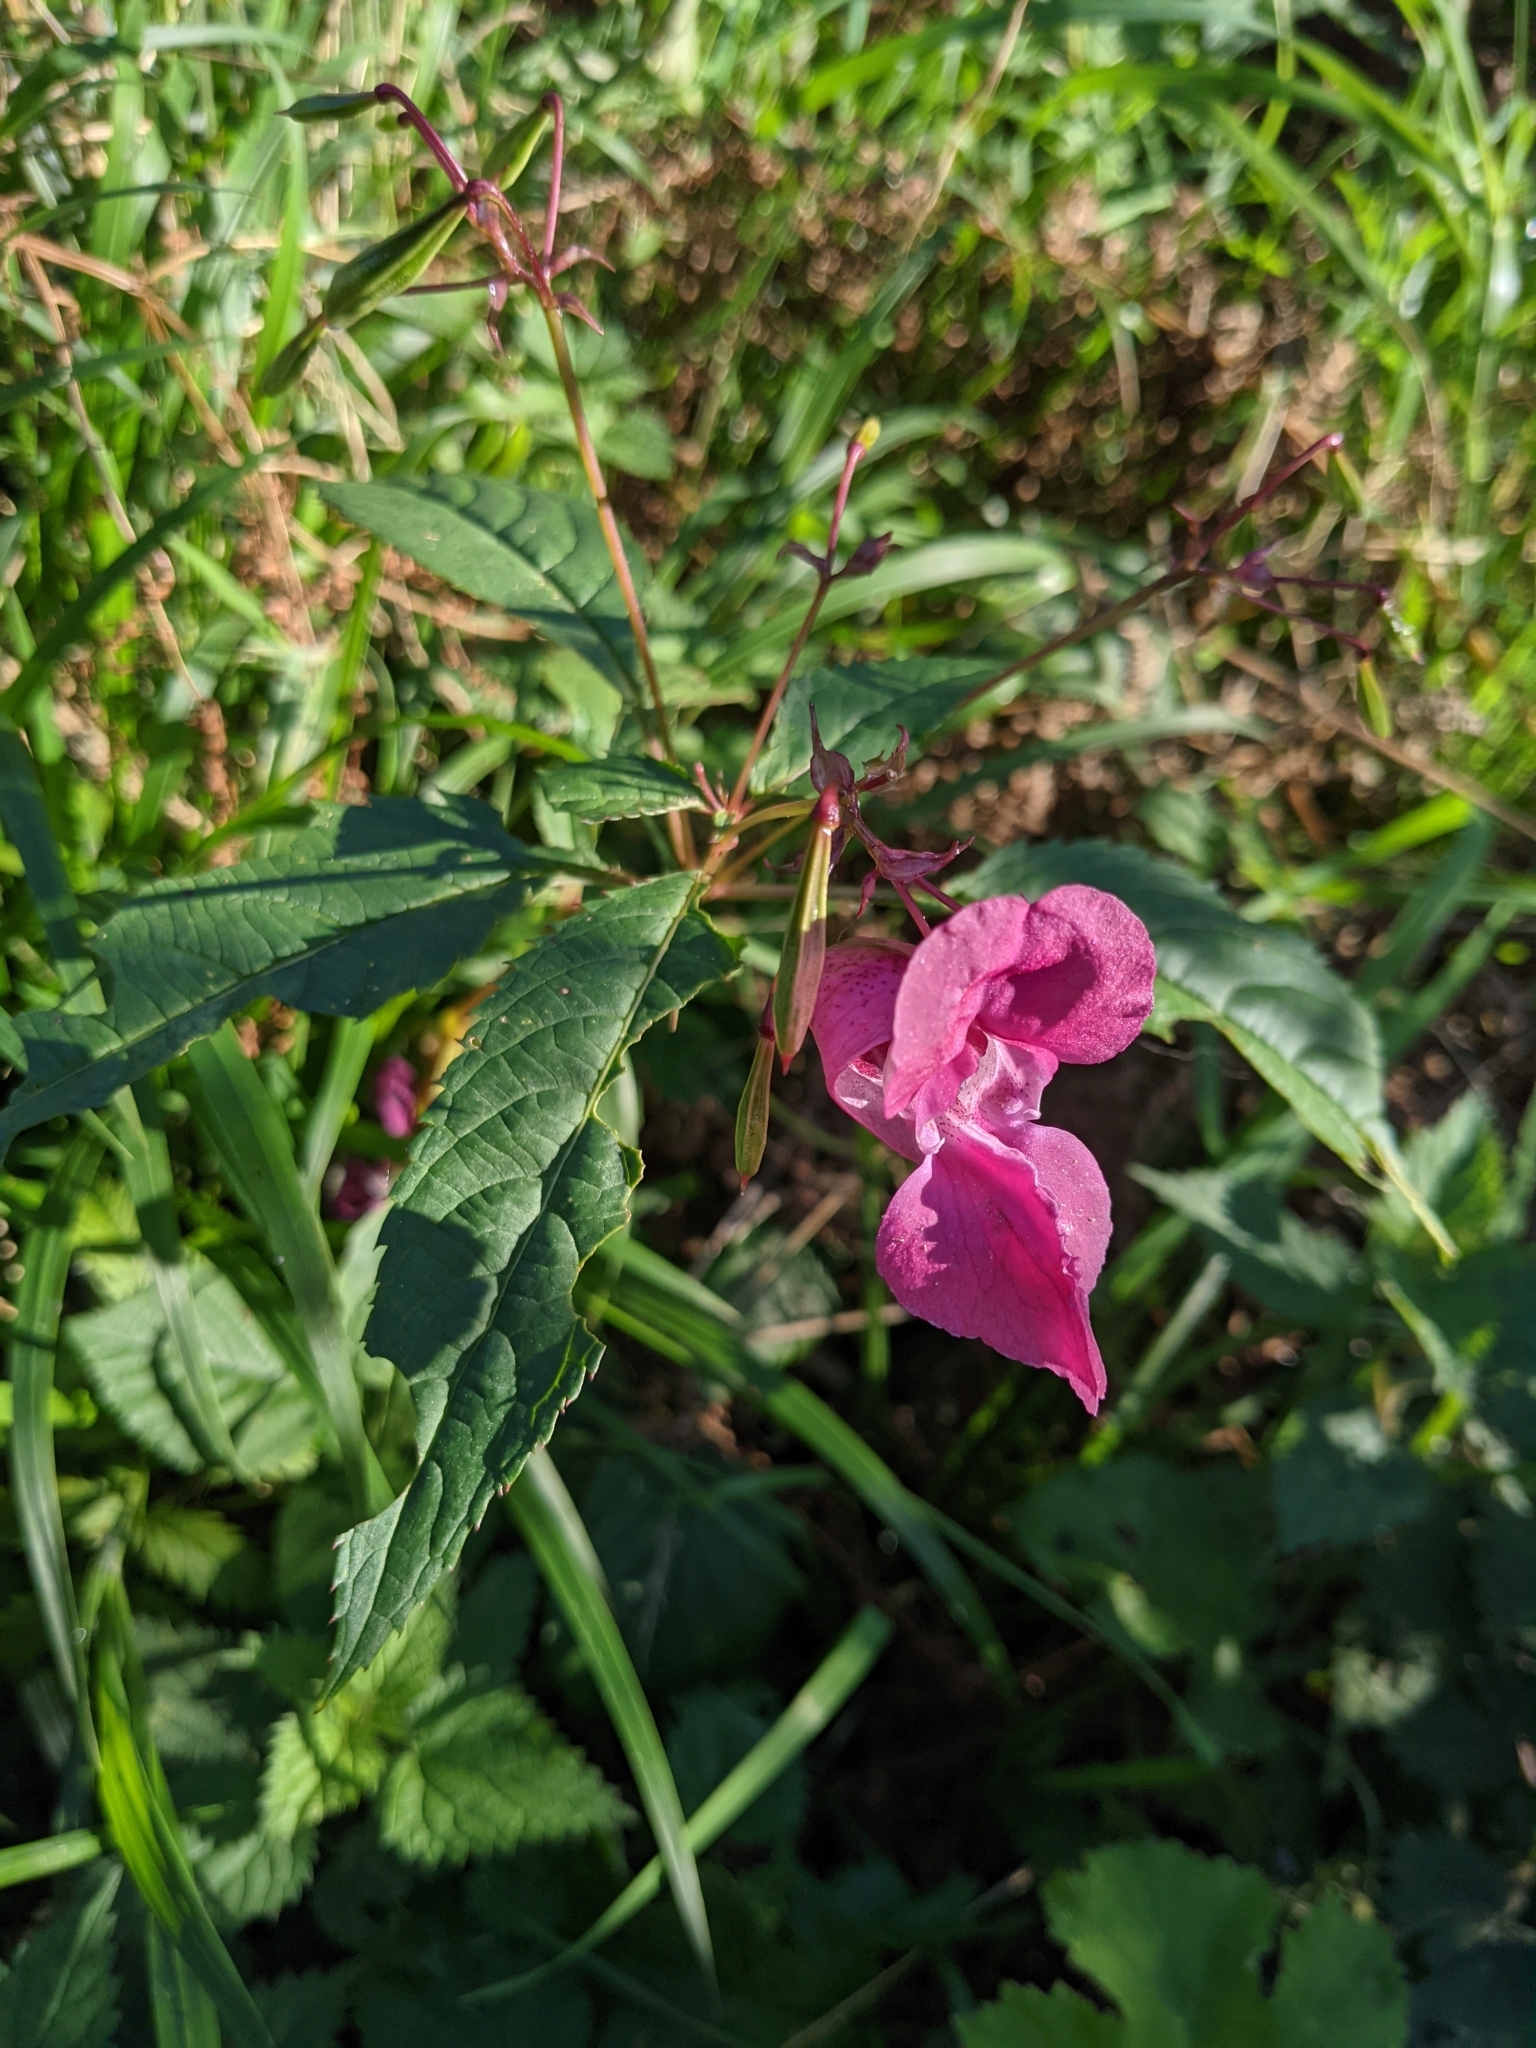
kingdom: Plantae
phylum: Tracheophyta
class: Magnoliopsida
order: Ericales
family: Balsaminaceae
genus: Impatiens
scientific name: Impatiens glandulifera
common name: Himalayan balsam
